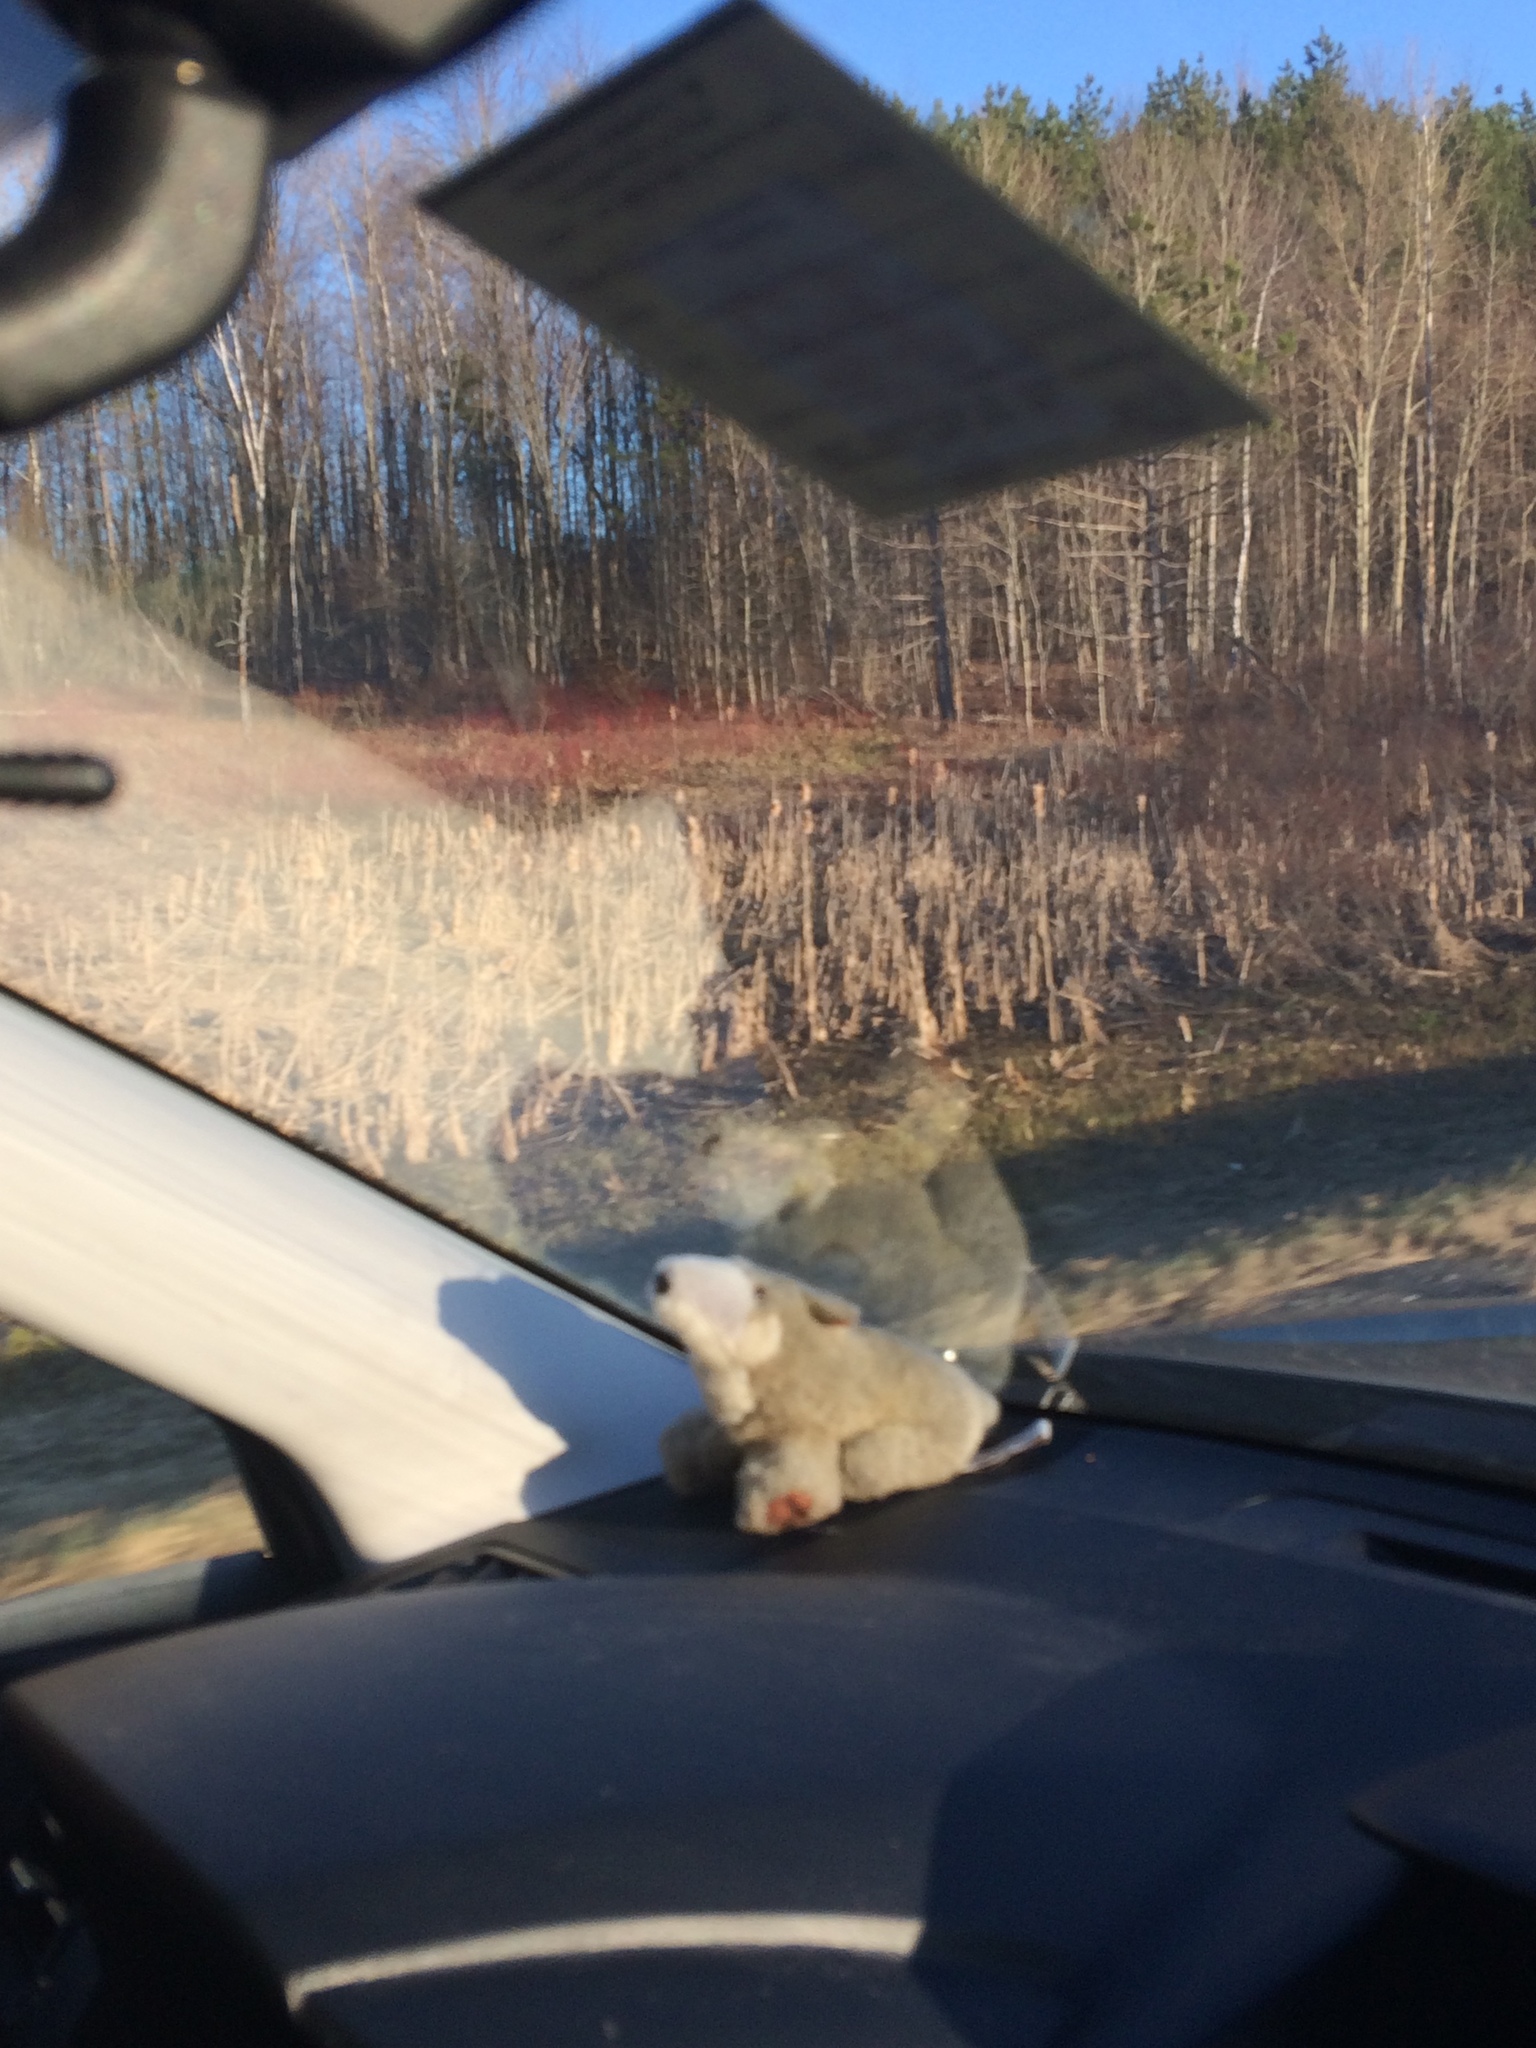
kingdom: Plantae
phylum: Tracheophyta
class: Liliopsida
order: Poales
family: Typhaceae
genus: Typha
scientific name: Typha latifolia
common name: Broadleaf cattail
